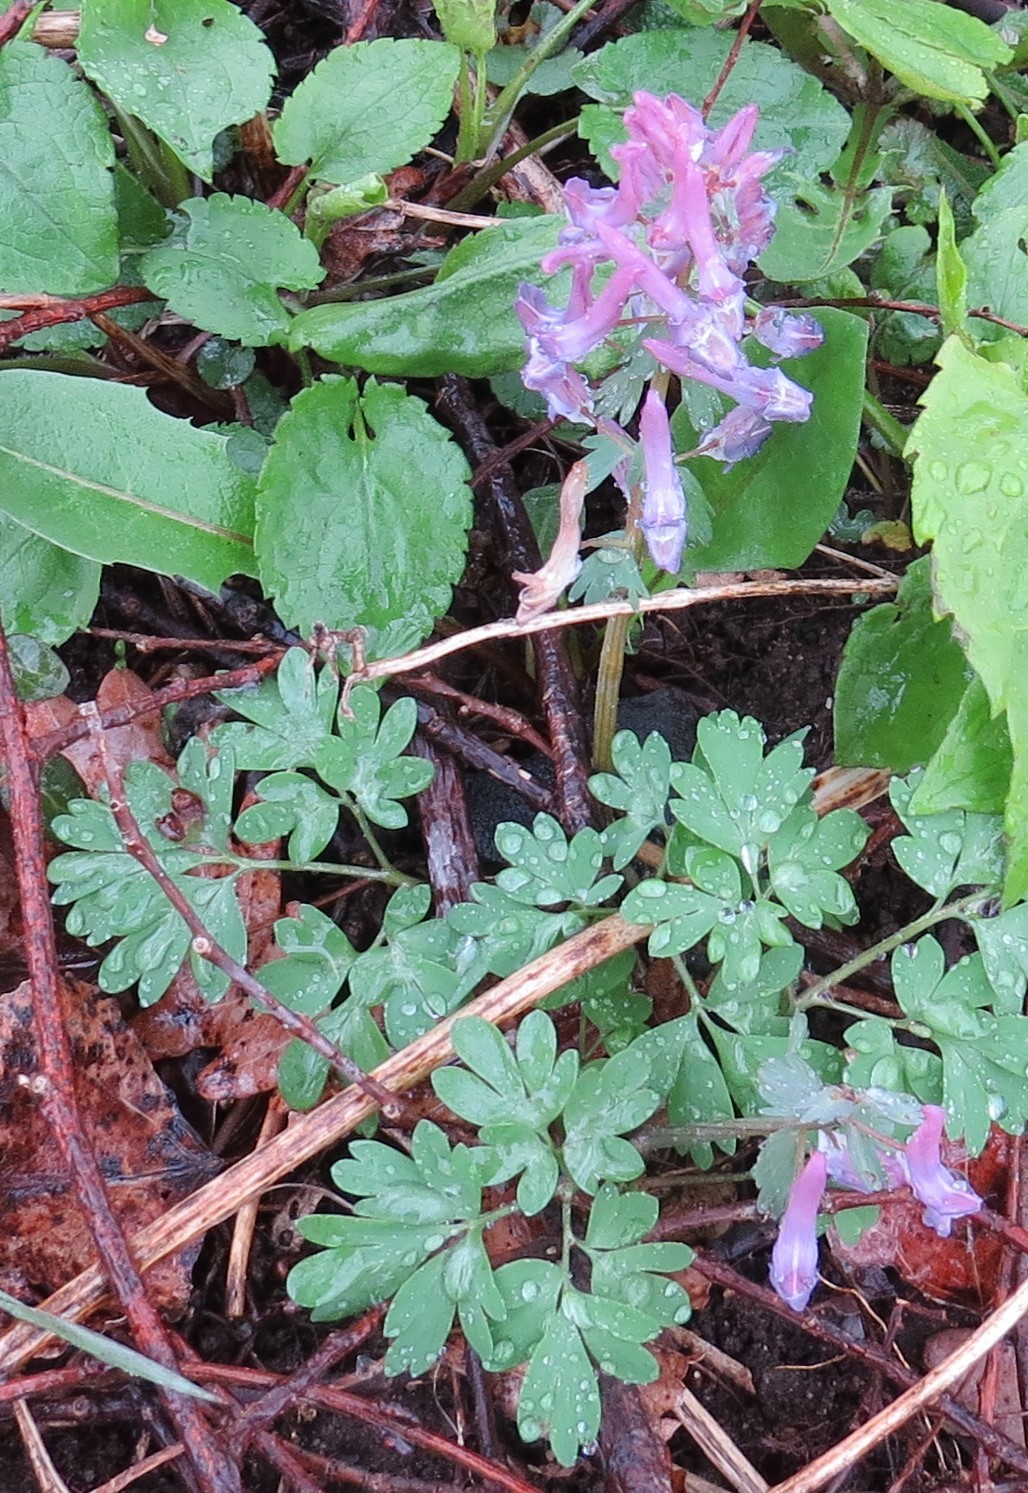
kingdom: Plantae
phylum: Tracheophyta
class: Magnoliopsida
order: Ranunculales
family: Papaveraceae
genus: Corydalis
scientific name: Corydalis solida
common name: Bird-in-a-bush
